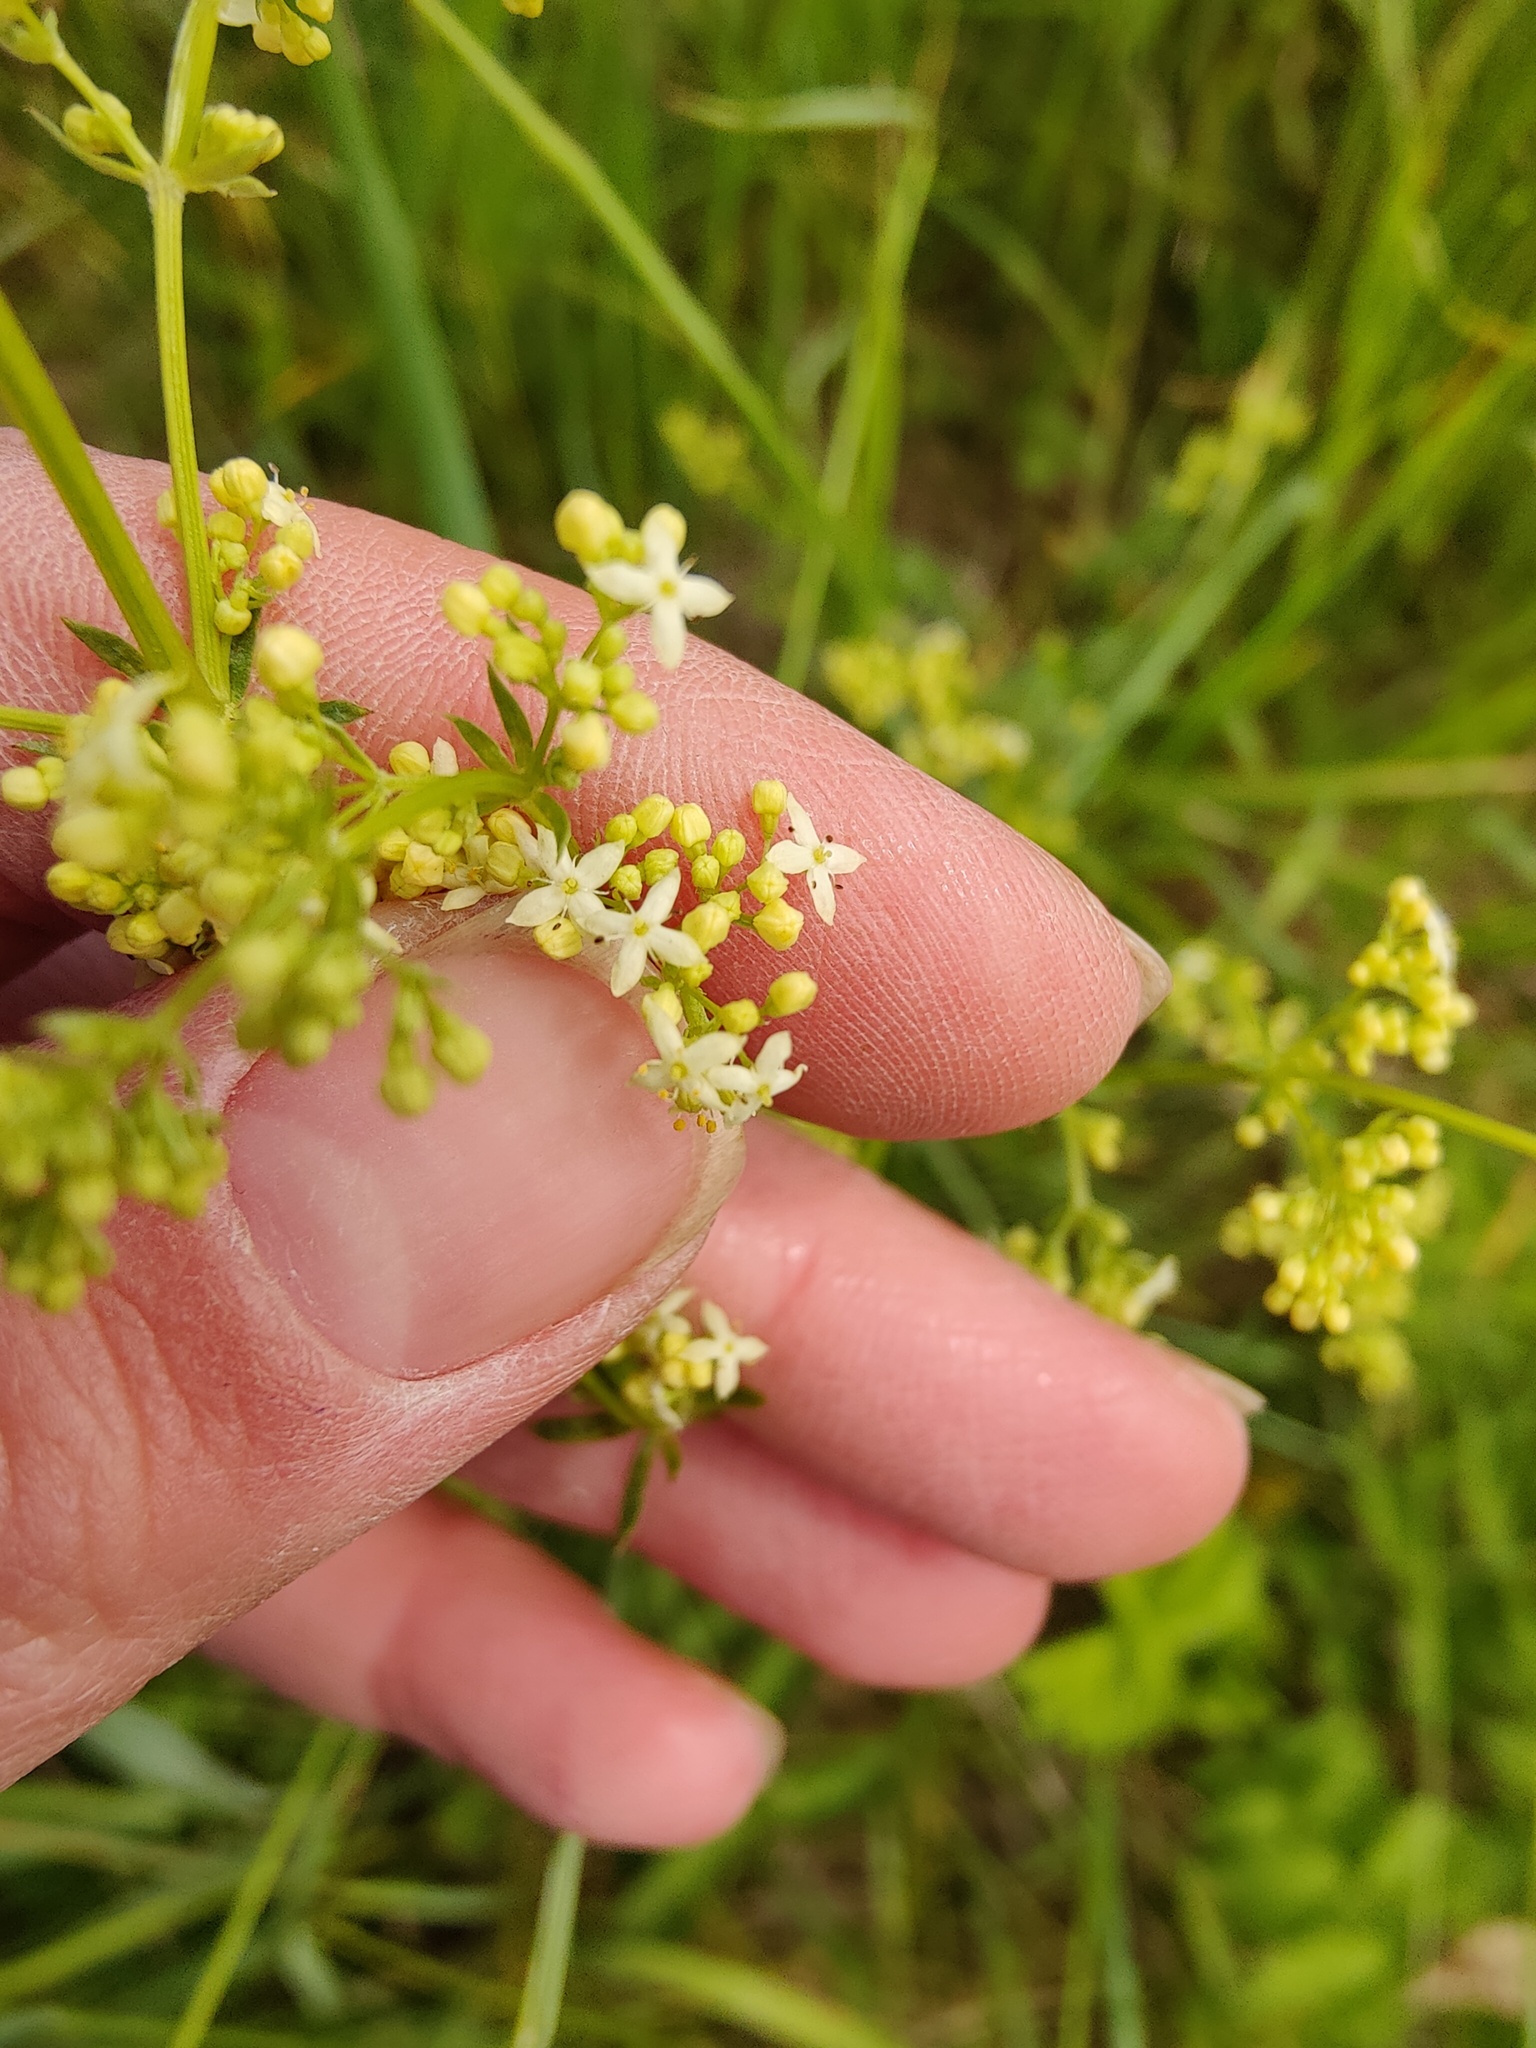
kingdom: Plantae
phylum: Tracheophyta
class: Magnoliopsida
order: Gentianales
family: Rubiaceae
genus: Galium
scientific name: Galium pomeranicum
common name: Bedstraw
